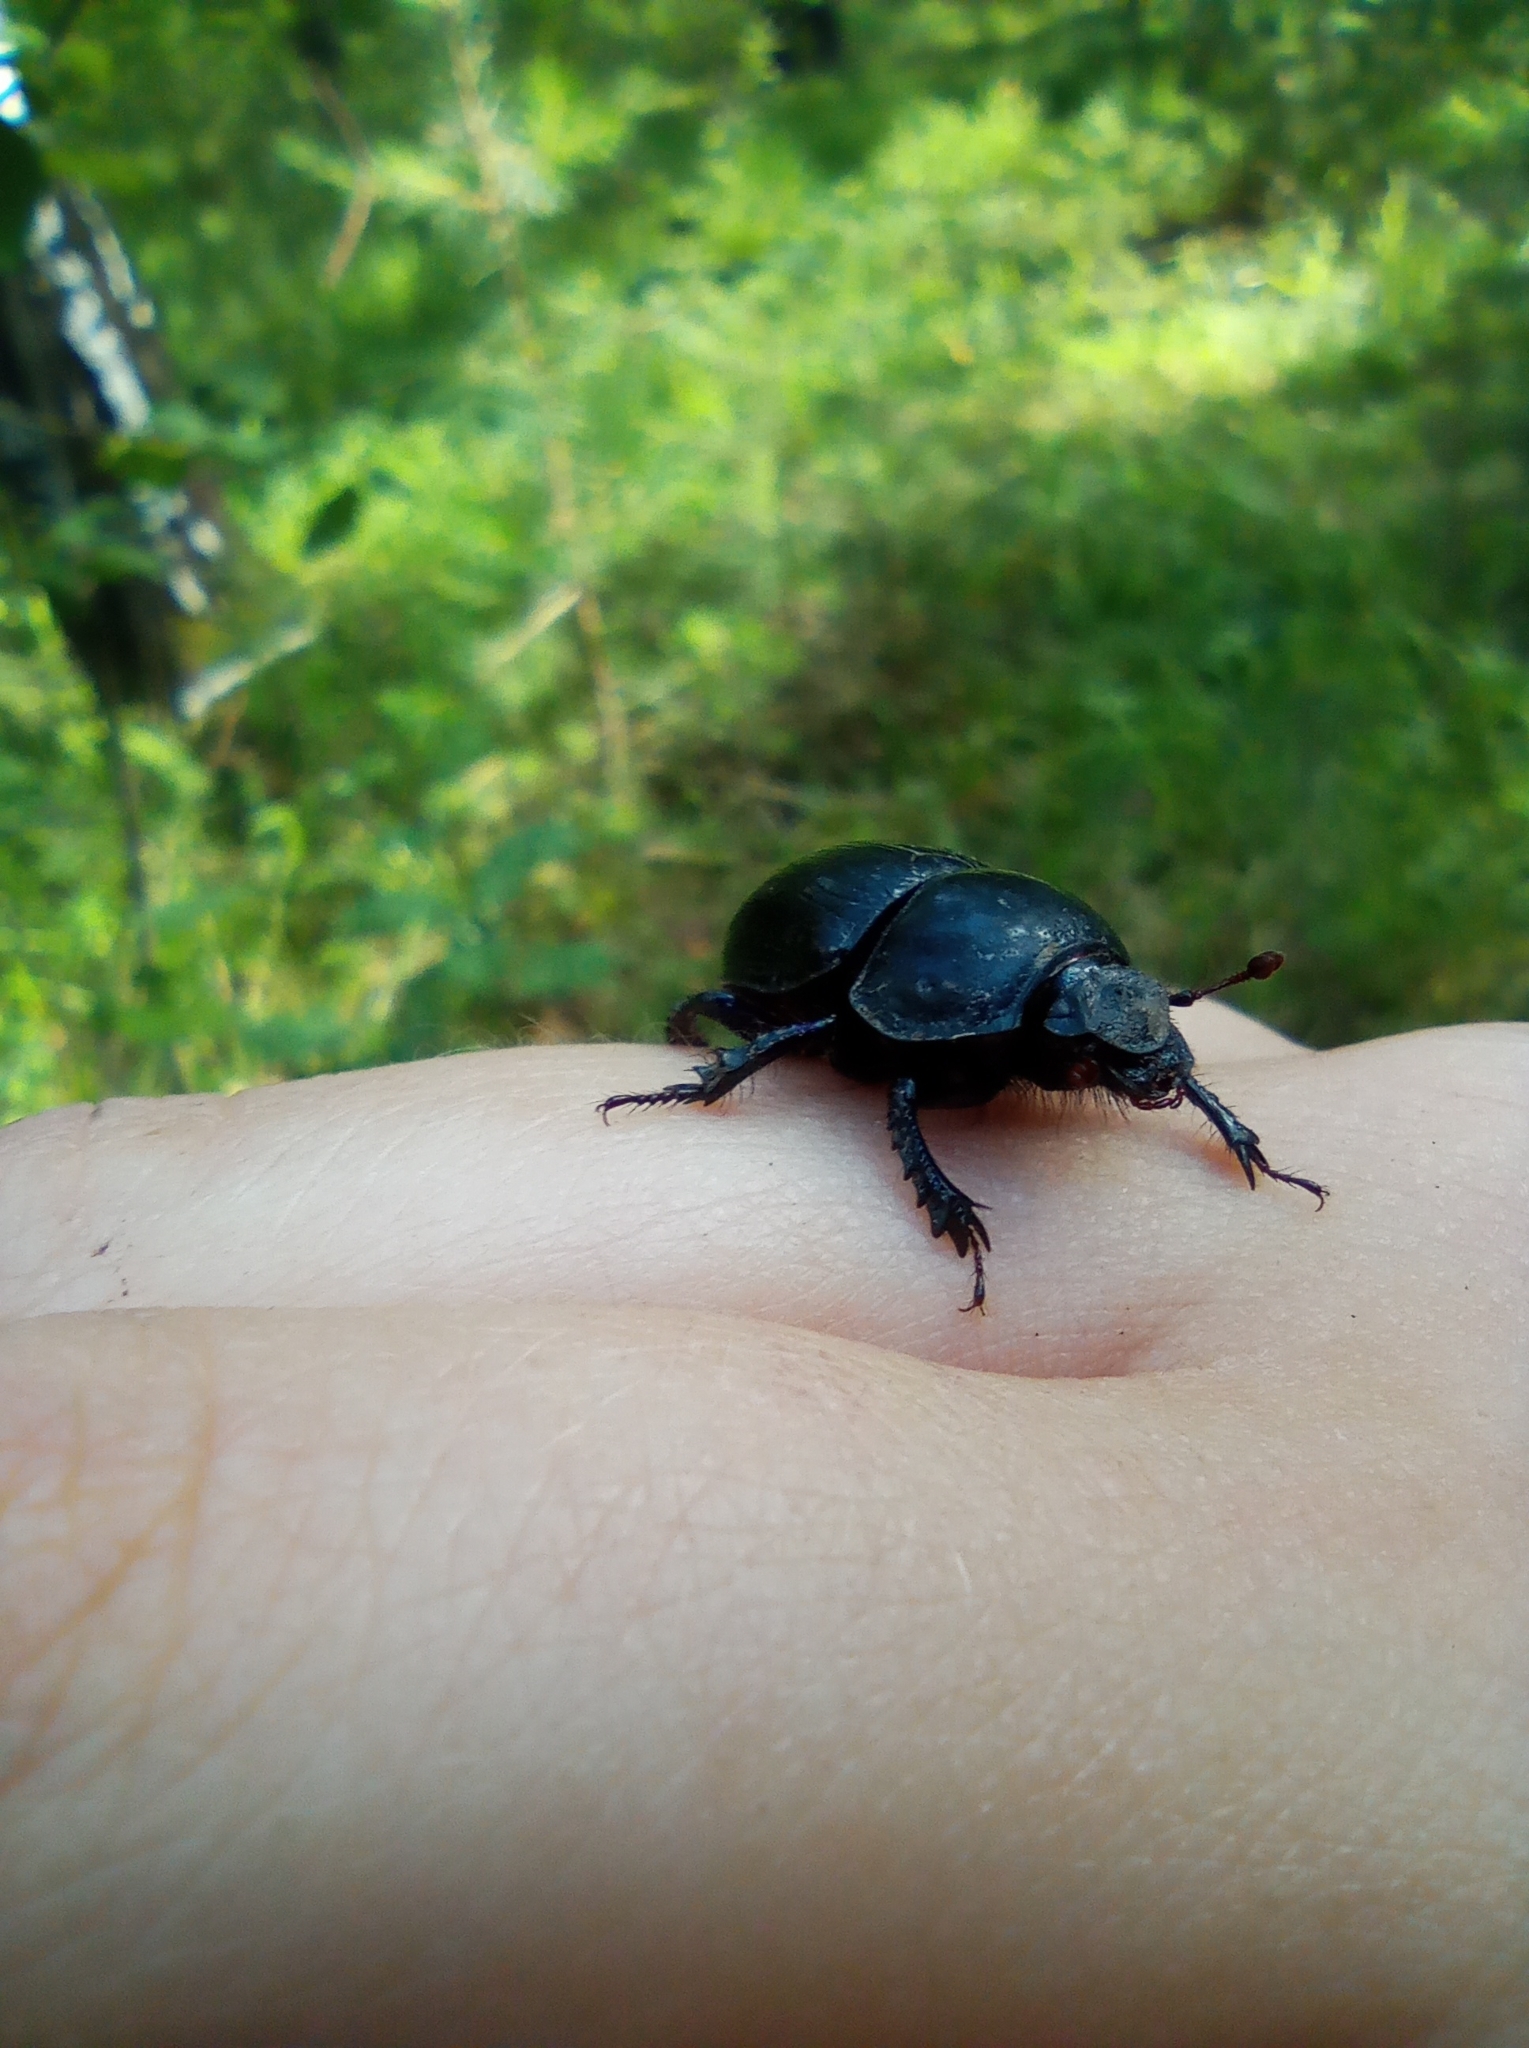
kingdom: Animalia
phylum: Arthropoda
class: Insecta
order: Coleoptera
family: Geotrupidae
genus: Anoplotrupes
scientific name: Anoplotrupes stercorosus
